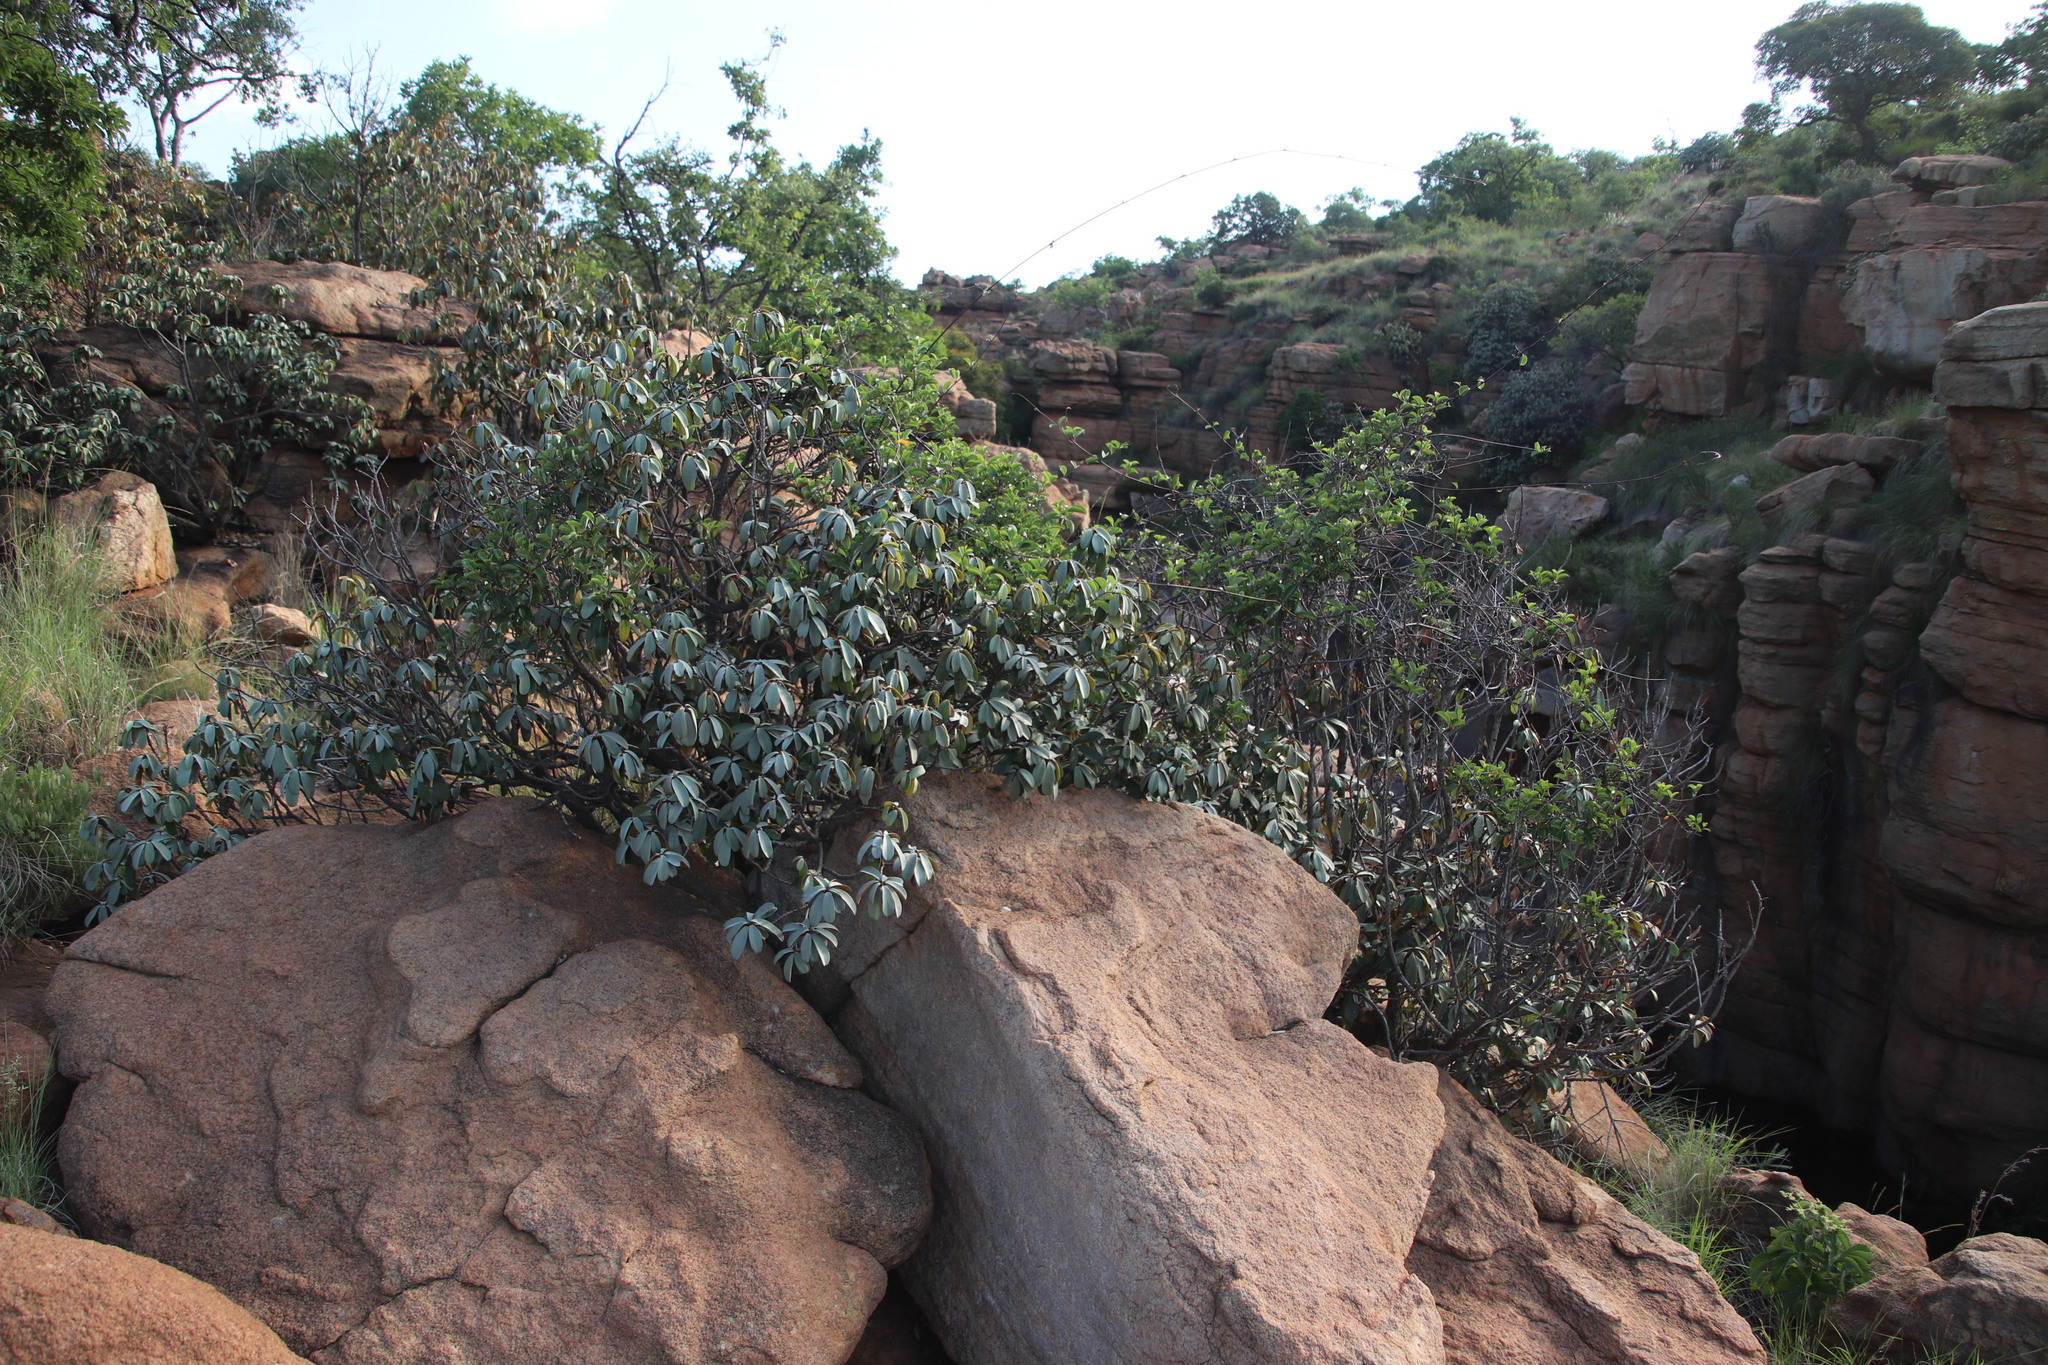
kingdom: Plantae
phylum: Tracheophyta
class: Magnoliopsida
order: Ericales
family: Sapotaceae
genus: Englerophytum
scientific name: Englerophytum magalismontanum
